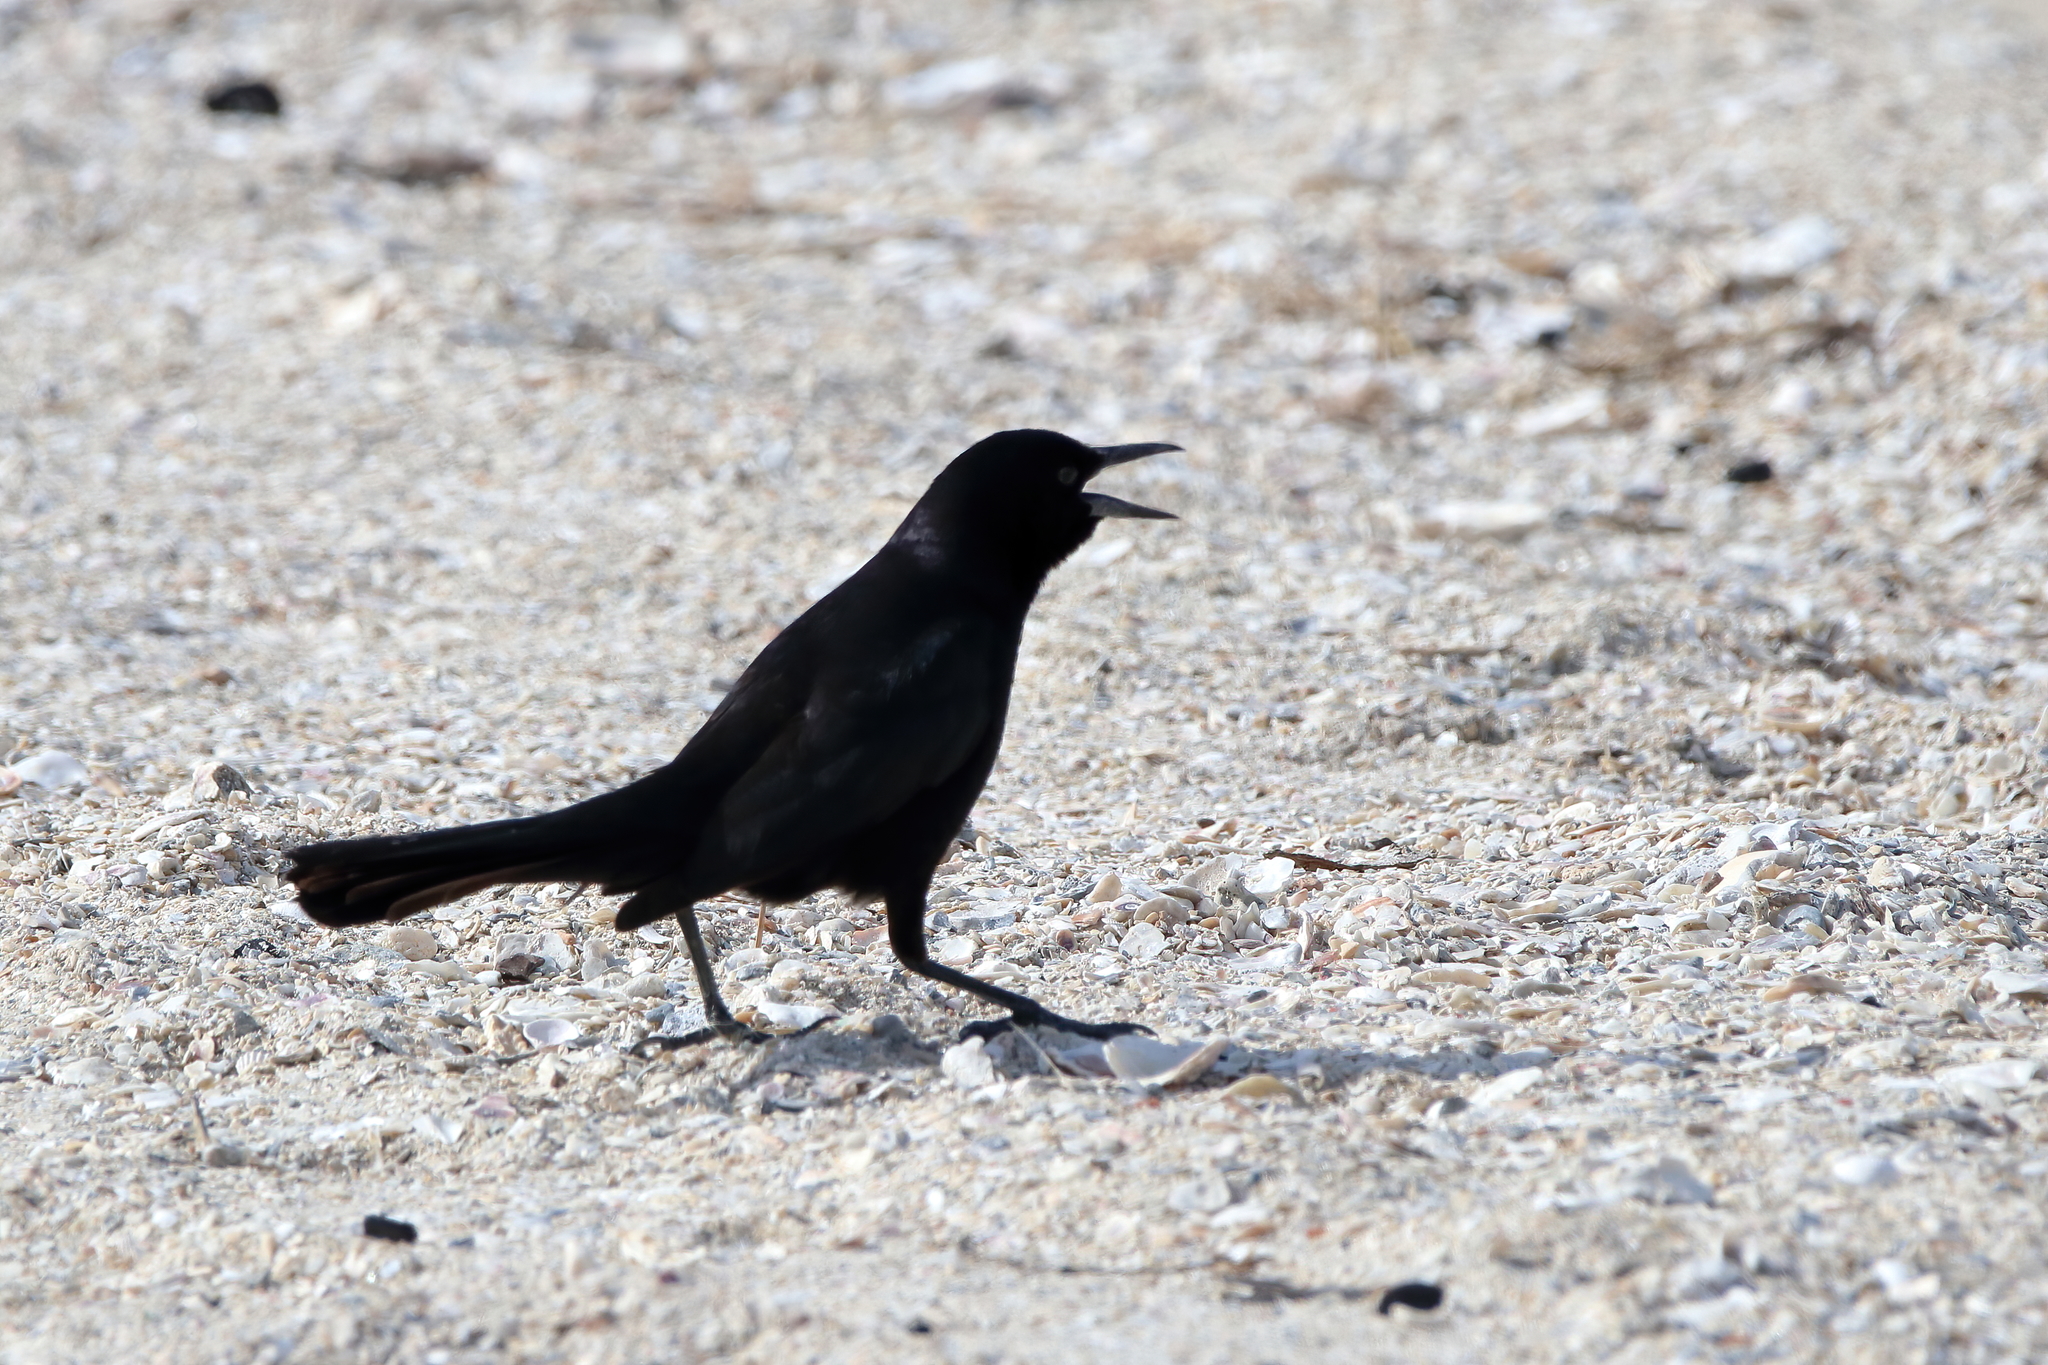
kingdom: Animalia
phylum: Chordata
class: Aves
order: Passeriformes
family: Icteridae
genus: Quiscalus
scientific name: Quiscalus major
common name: Boat-tailed grackle
